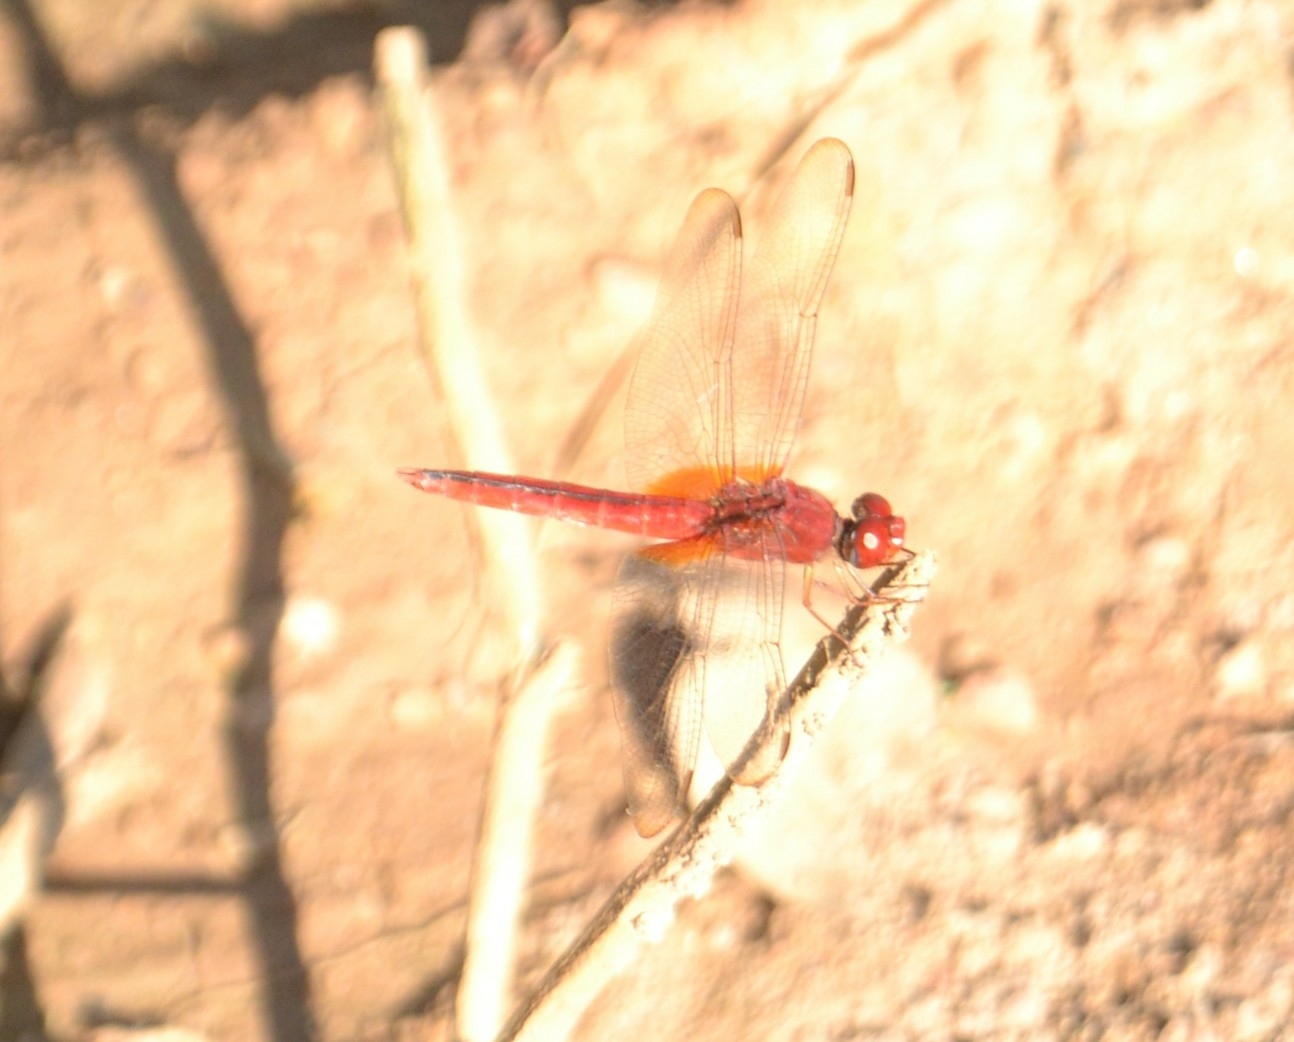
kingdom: Animalia
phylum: Arthropoda
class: Insecta
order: Odonata
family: Libellulidae
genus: Crocothemis
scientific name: Crocothemis servilia
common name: Scarlet skimmer
